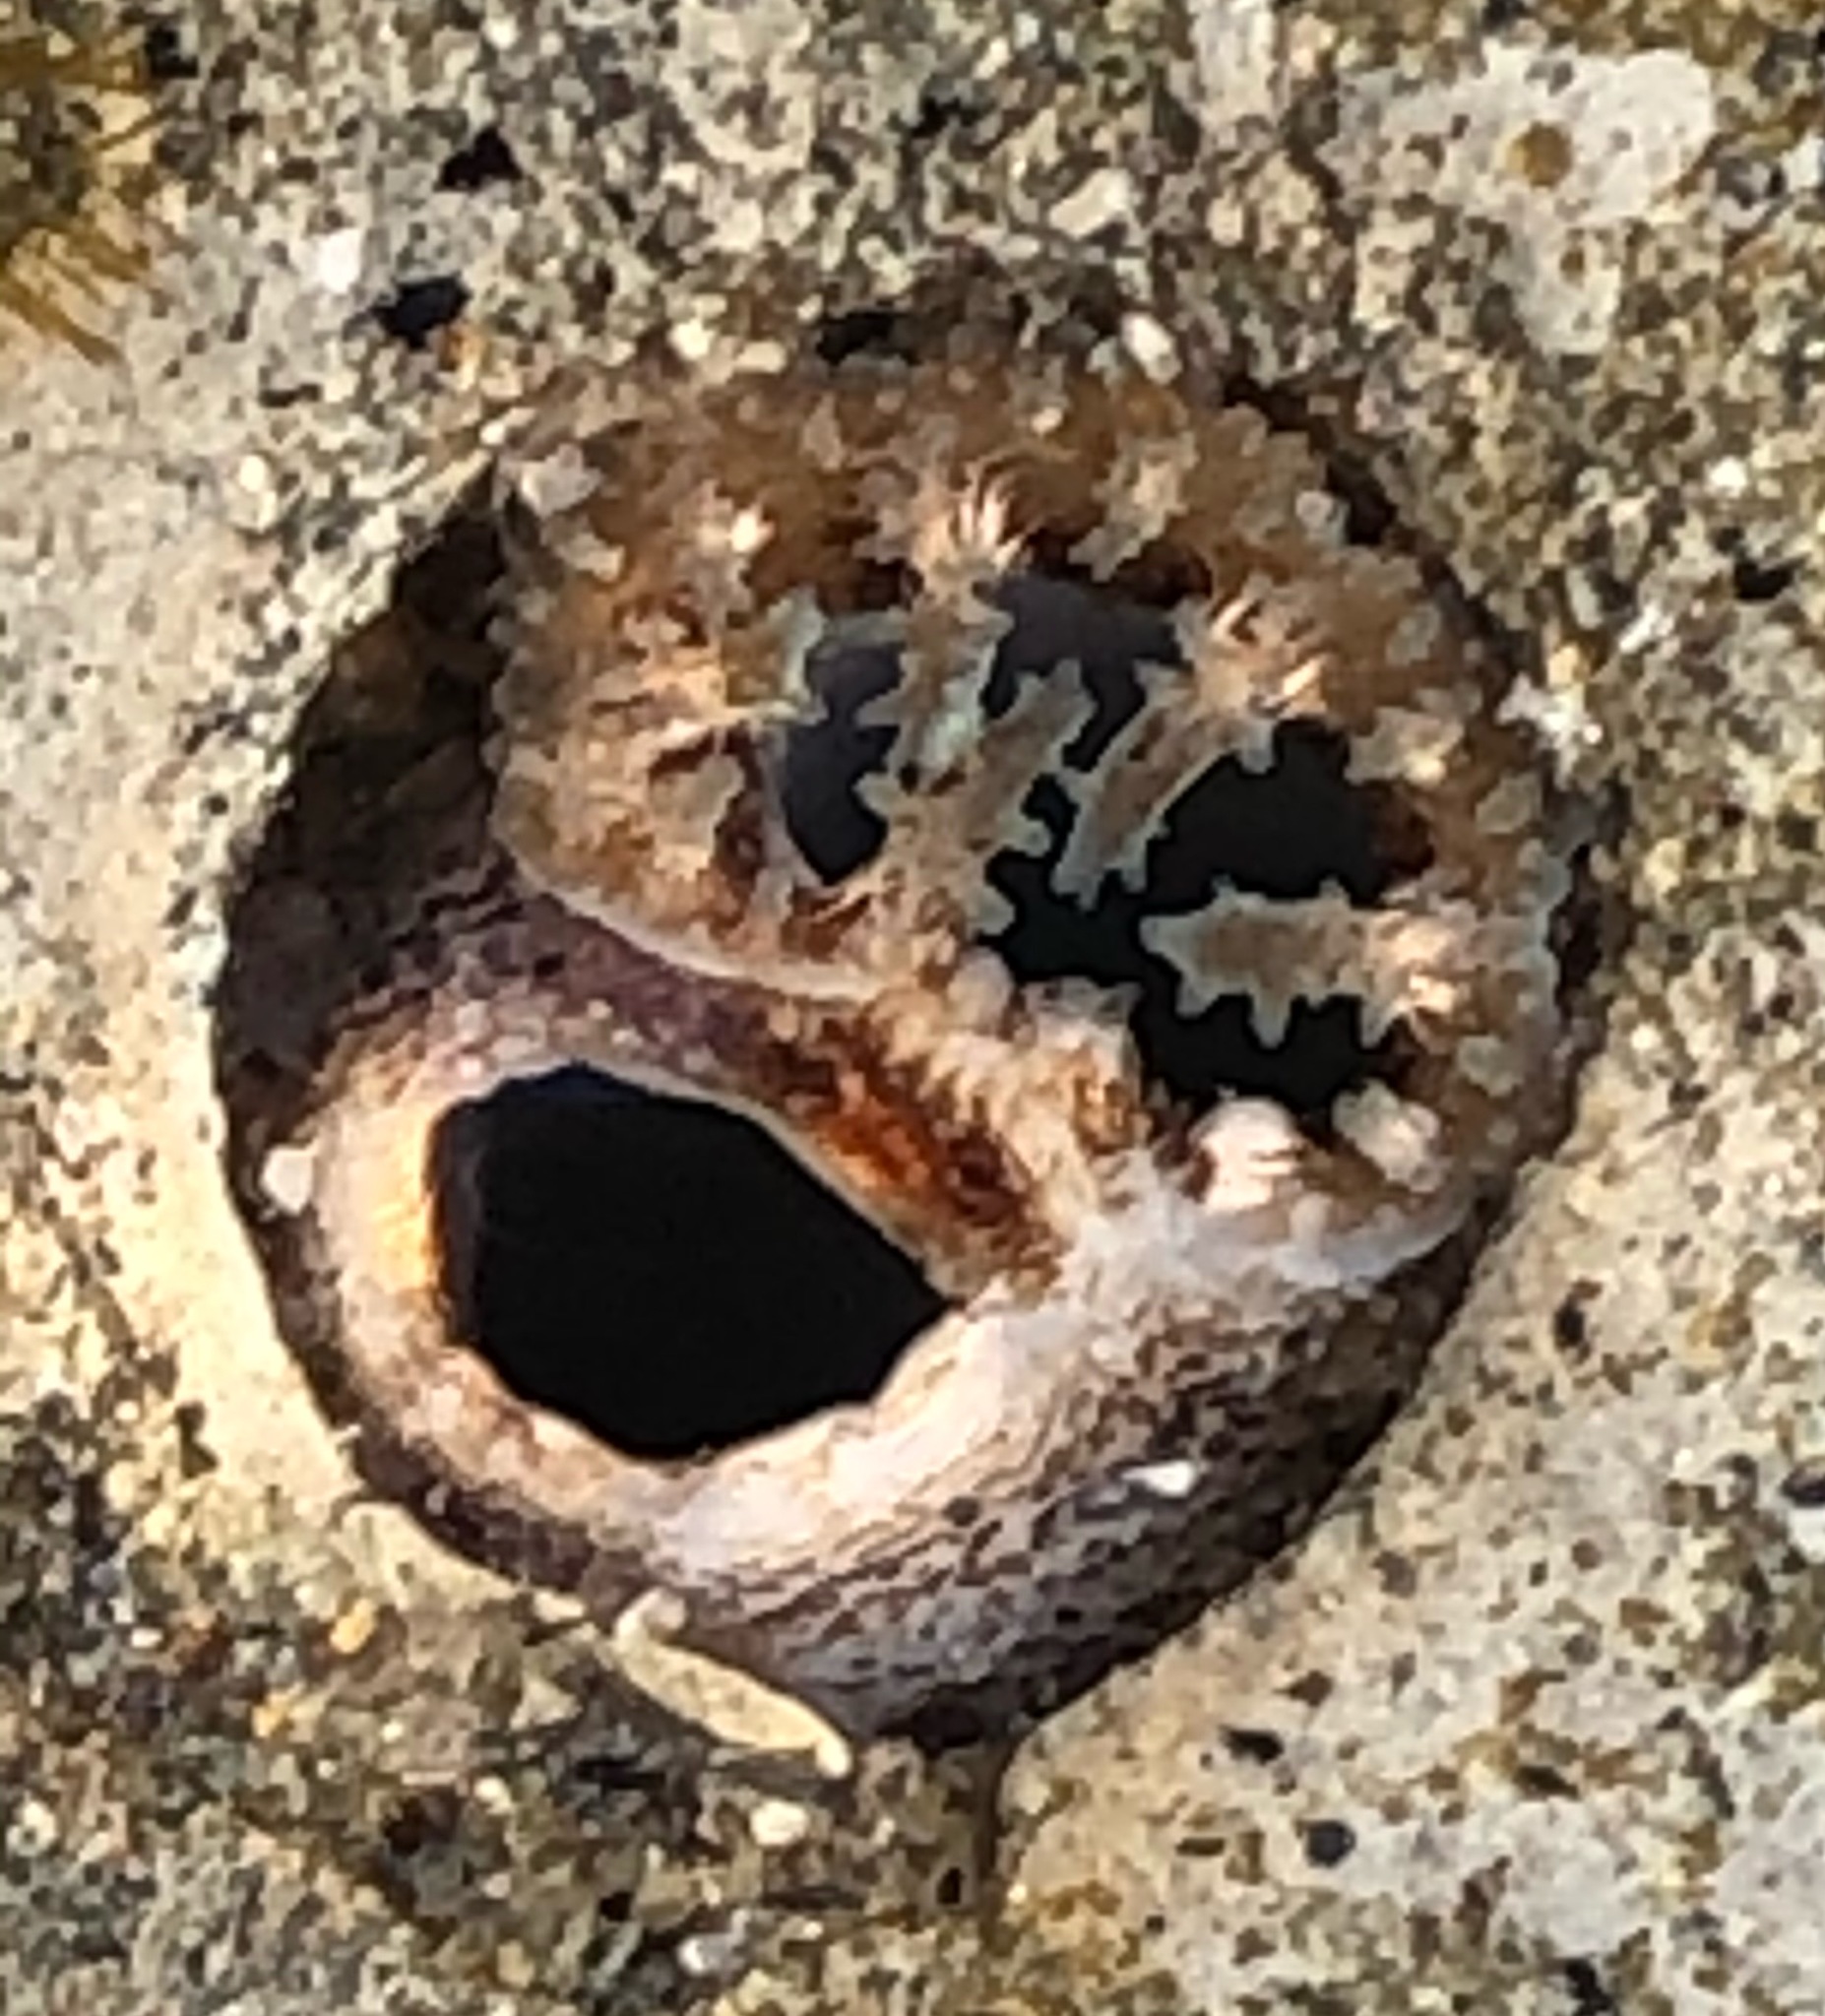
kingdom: Animalia
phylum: Mollusca
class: Bivalvia
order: Myida
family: Pholadidae
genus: Parapholas
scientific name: Parapholas californica
